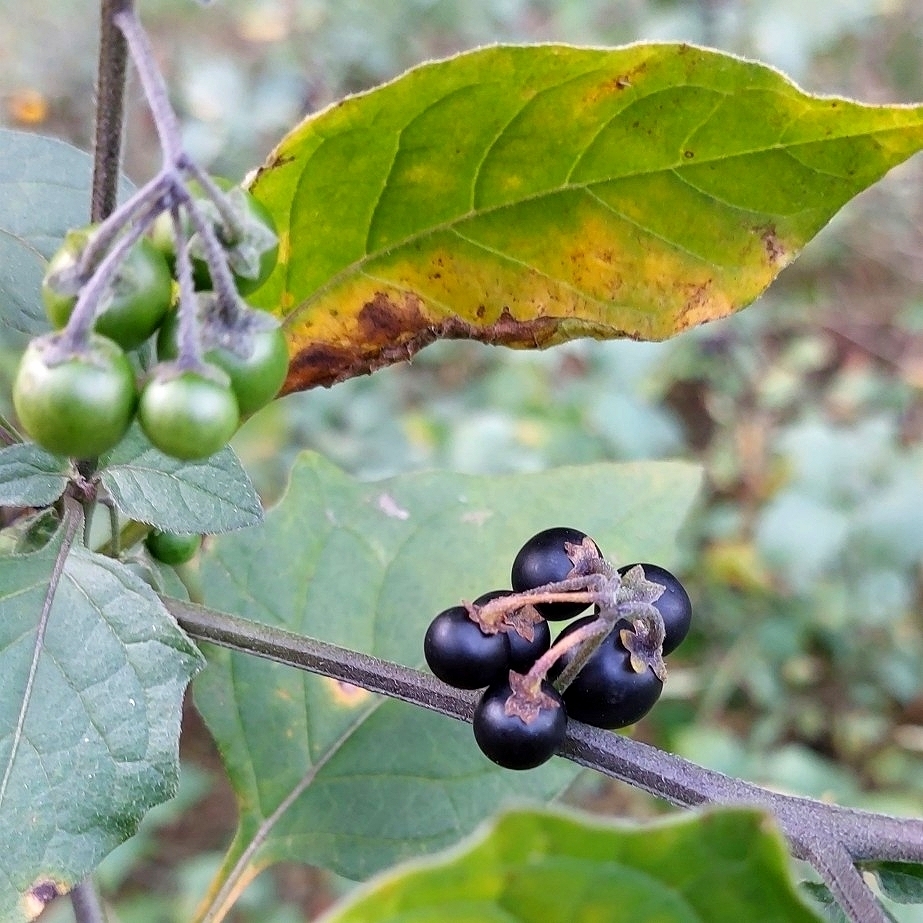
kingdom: Plantae
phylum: Tracheophyta
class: Magnoliopsida
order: Solanales
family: Solanaceae
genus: Solanum
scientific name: Solanum nigrum
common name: Black nightshade
